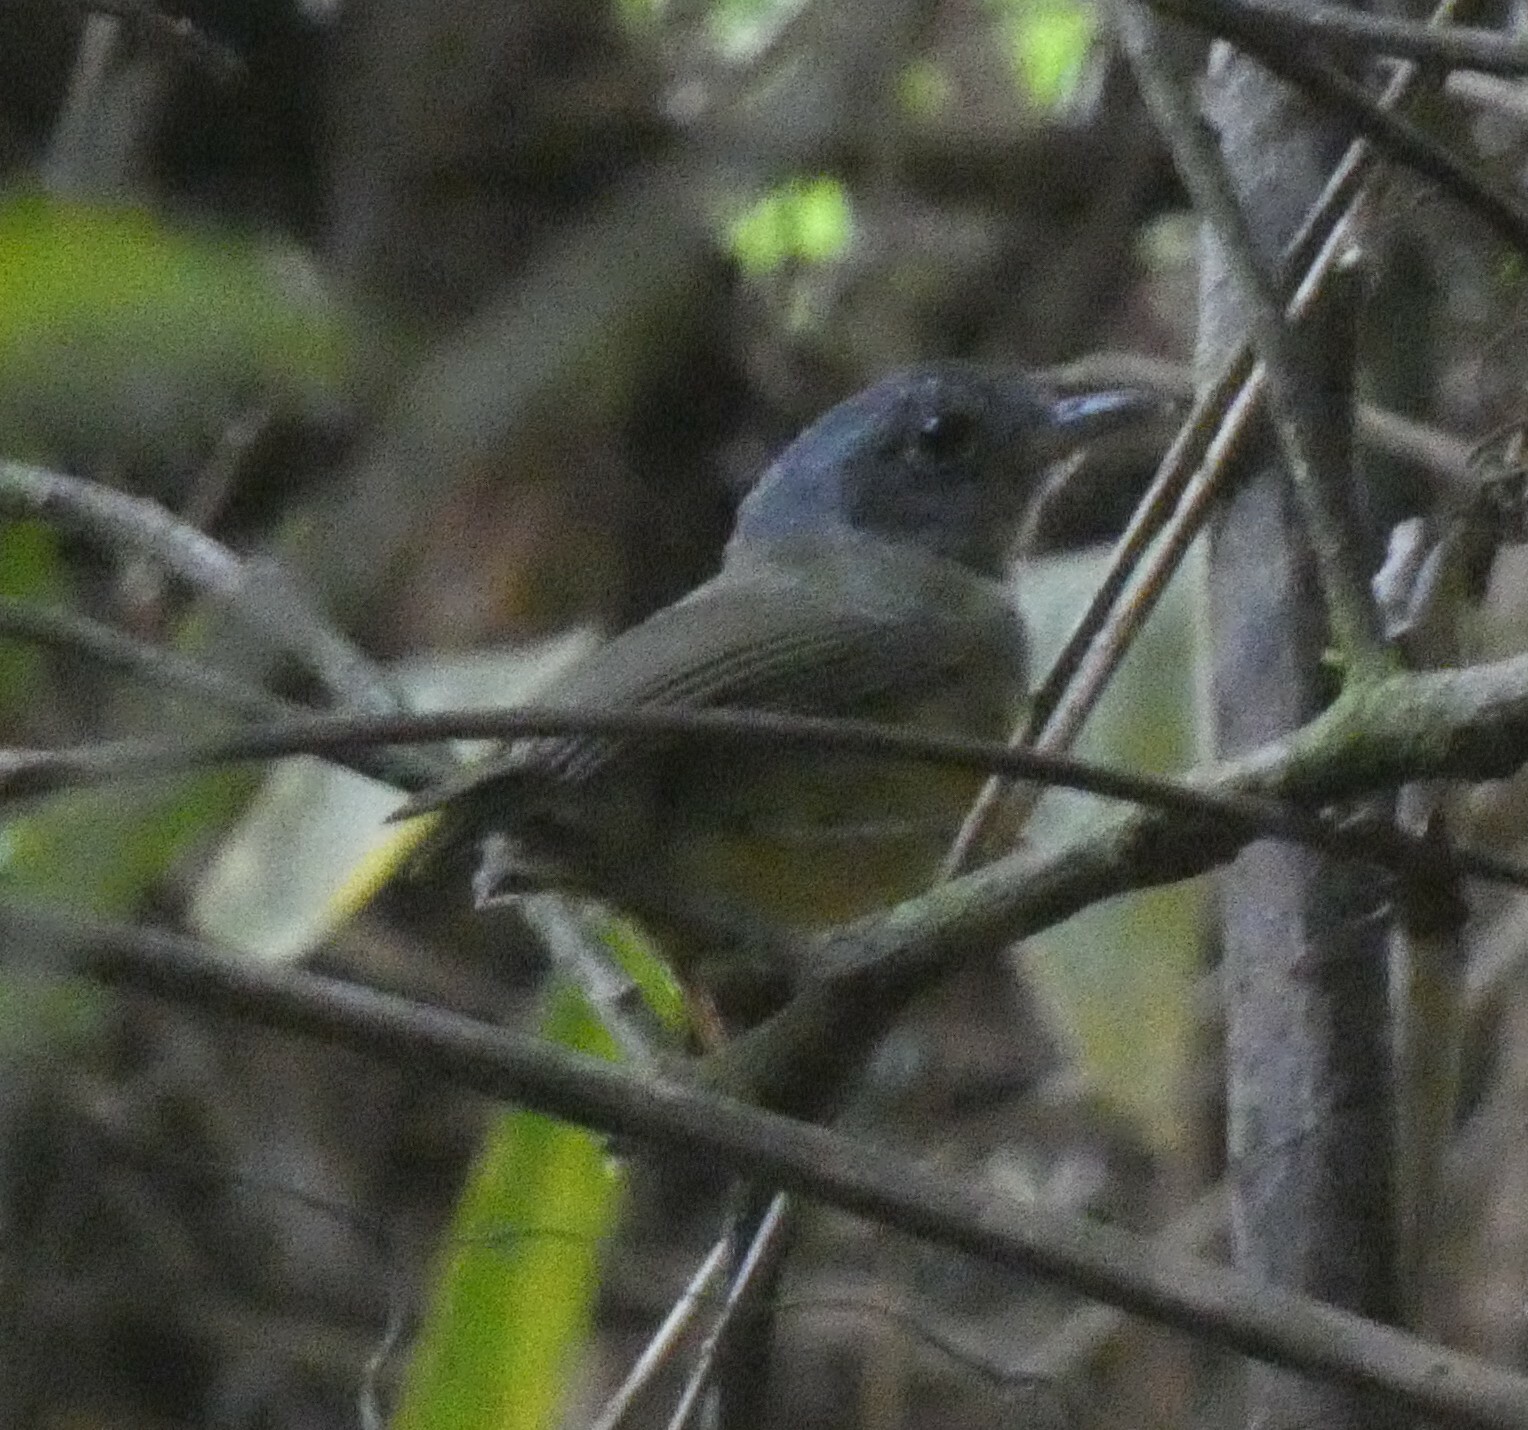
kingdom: Animalia
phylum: Chordata
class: Aves
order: Passeriformes
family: Thamnophilidae
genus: Dysithamnus
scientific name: Dysithamnus mentalis
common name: Plain antvireo
